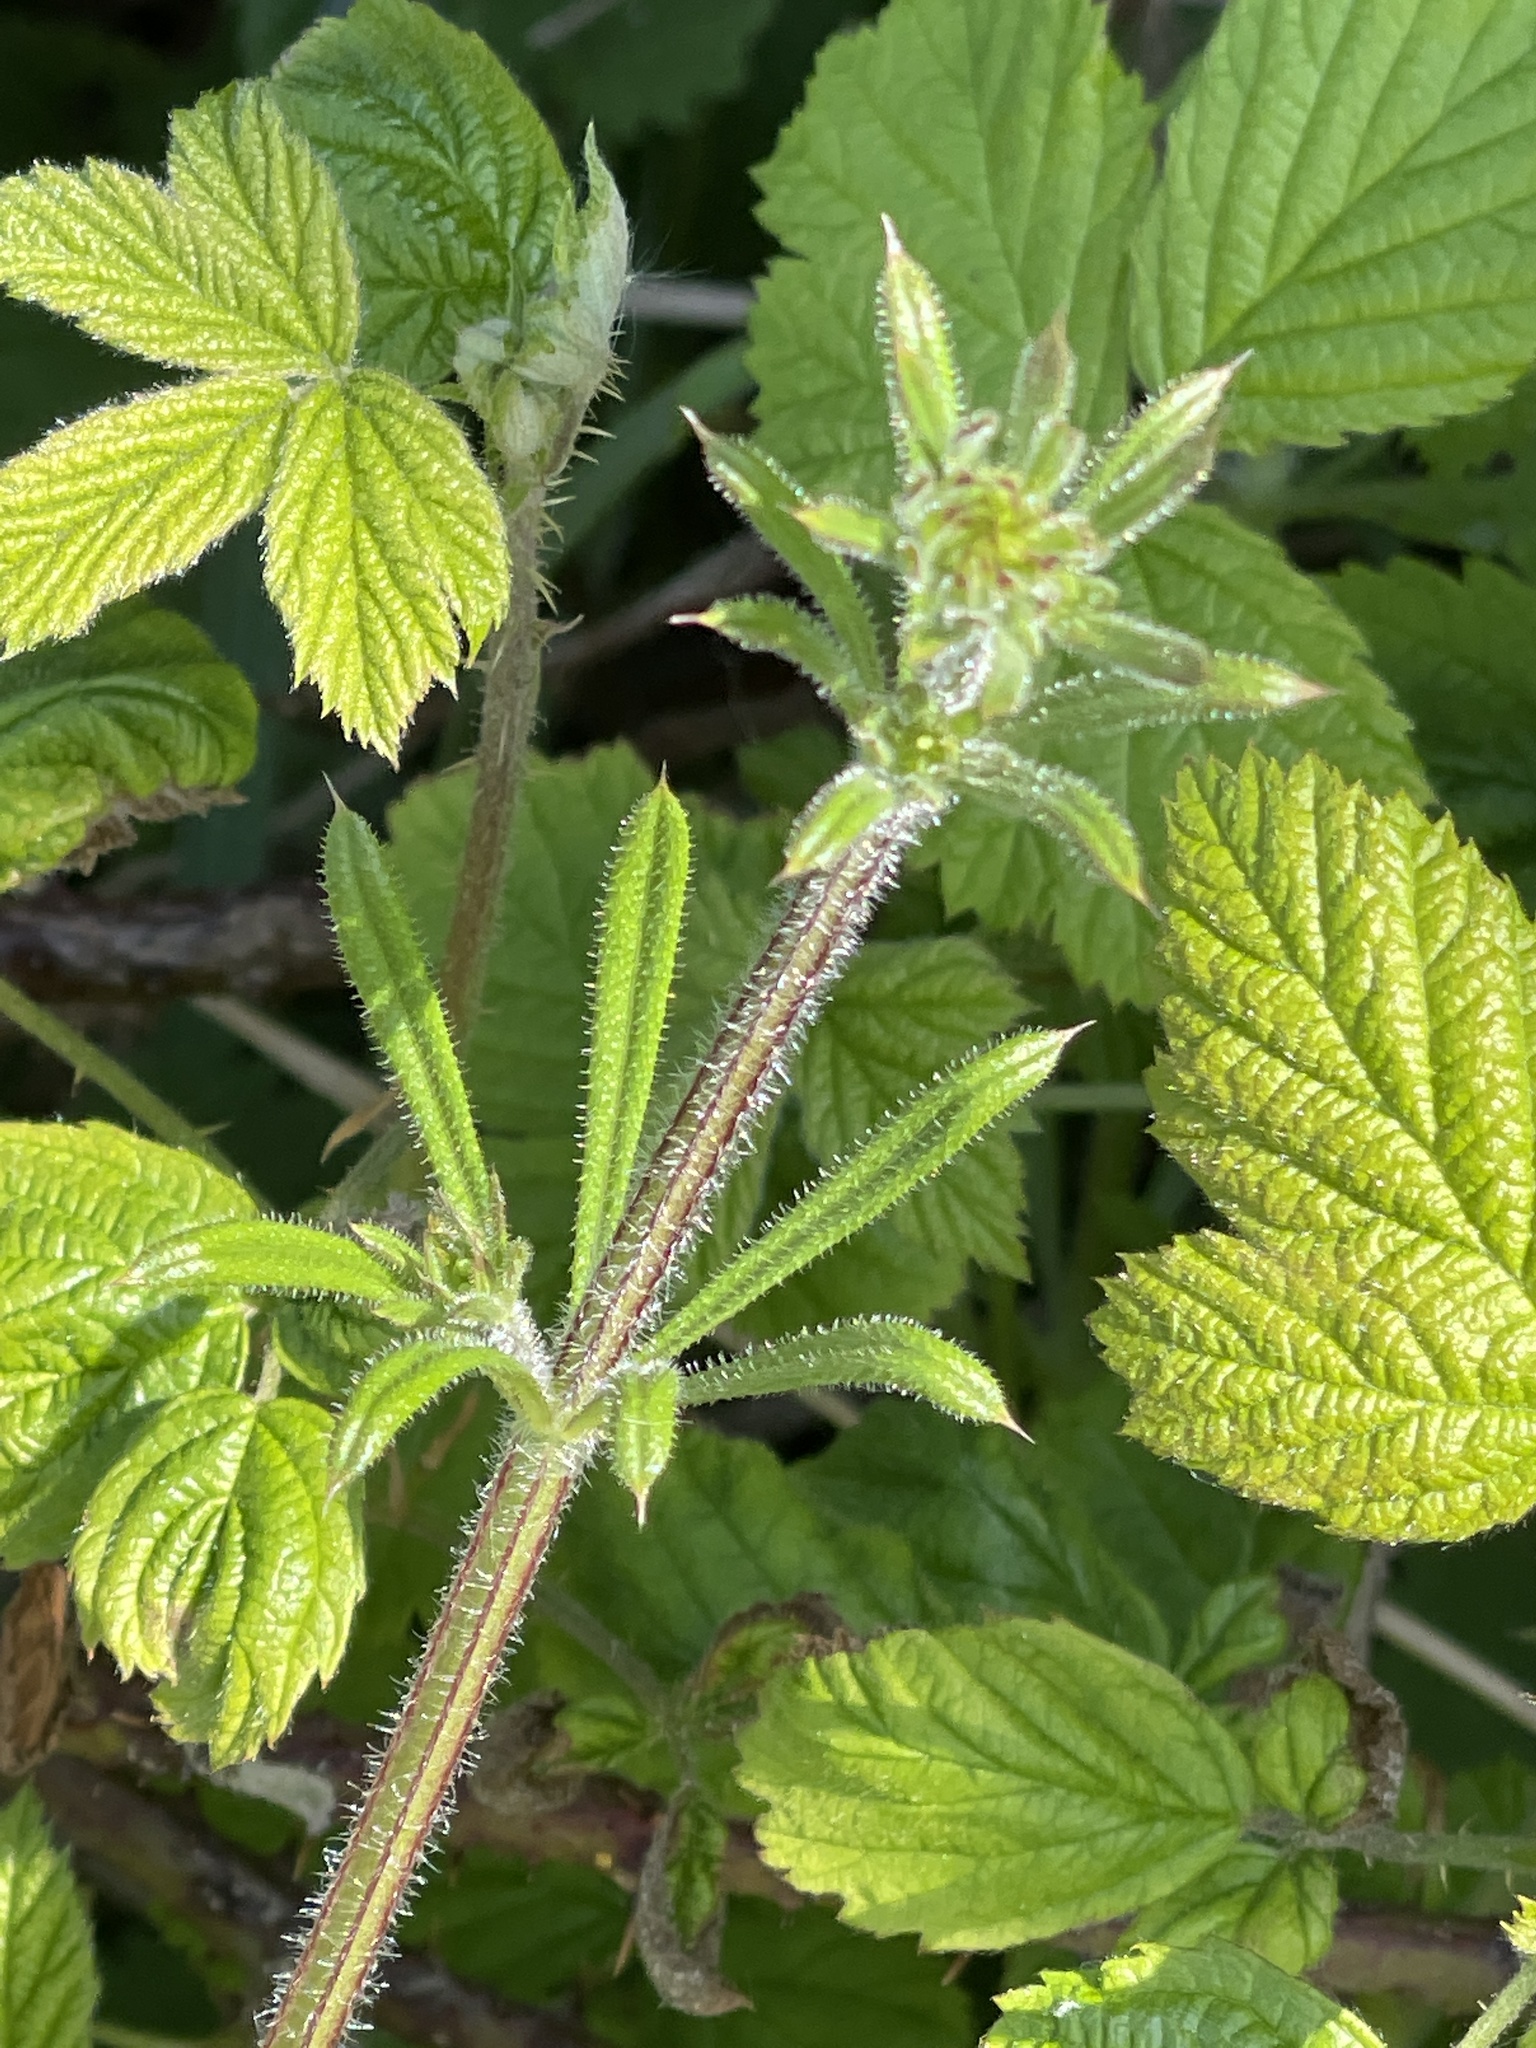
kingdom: Plantae
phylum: Tracheophyta
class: Magnoliopsida
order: Gentianales
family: Rubiaceae
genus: Galium
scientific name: Galium aparine
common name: Cleavers
